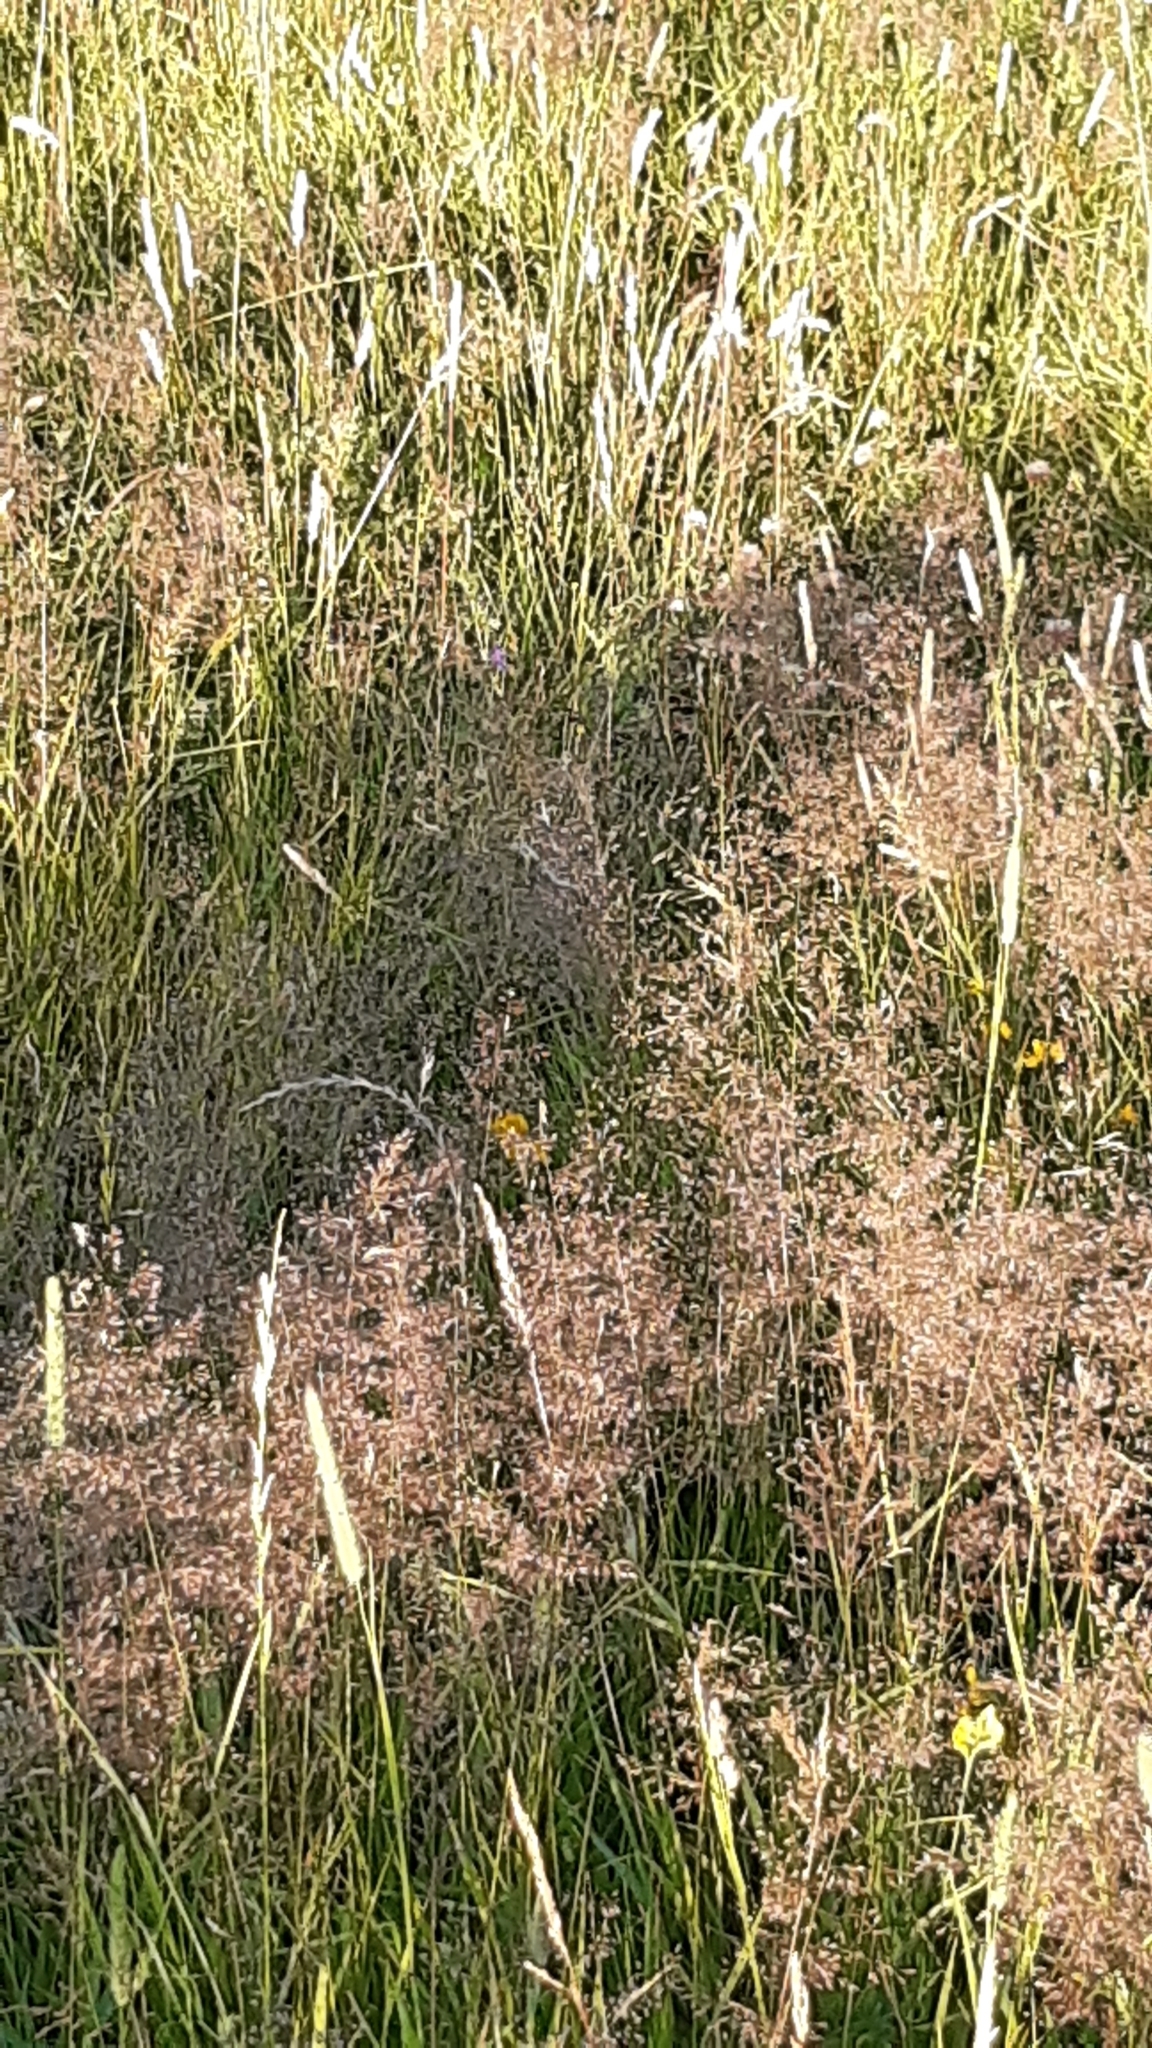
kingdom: Plantae
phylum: Tracheophyta
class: Liliopsida
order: Poales
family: Poaceae
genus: Agrostis
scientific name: Agrostis capillaris
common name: Colonial bentgrass
